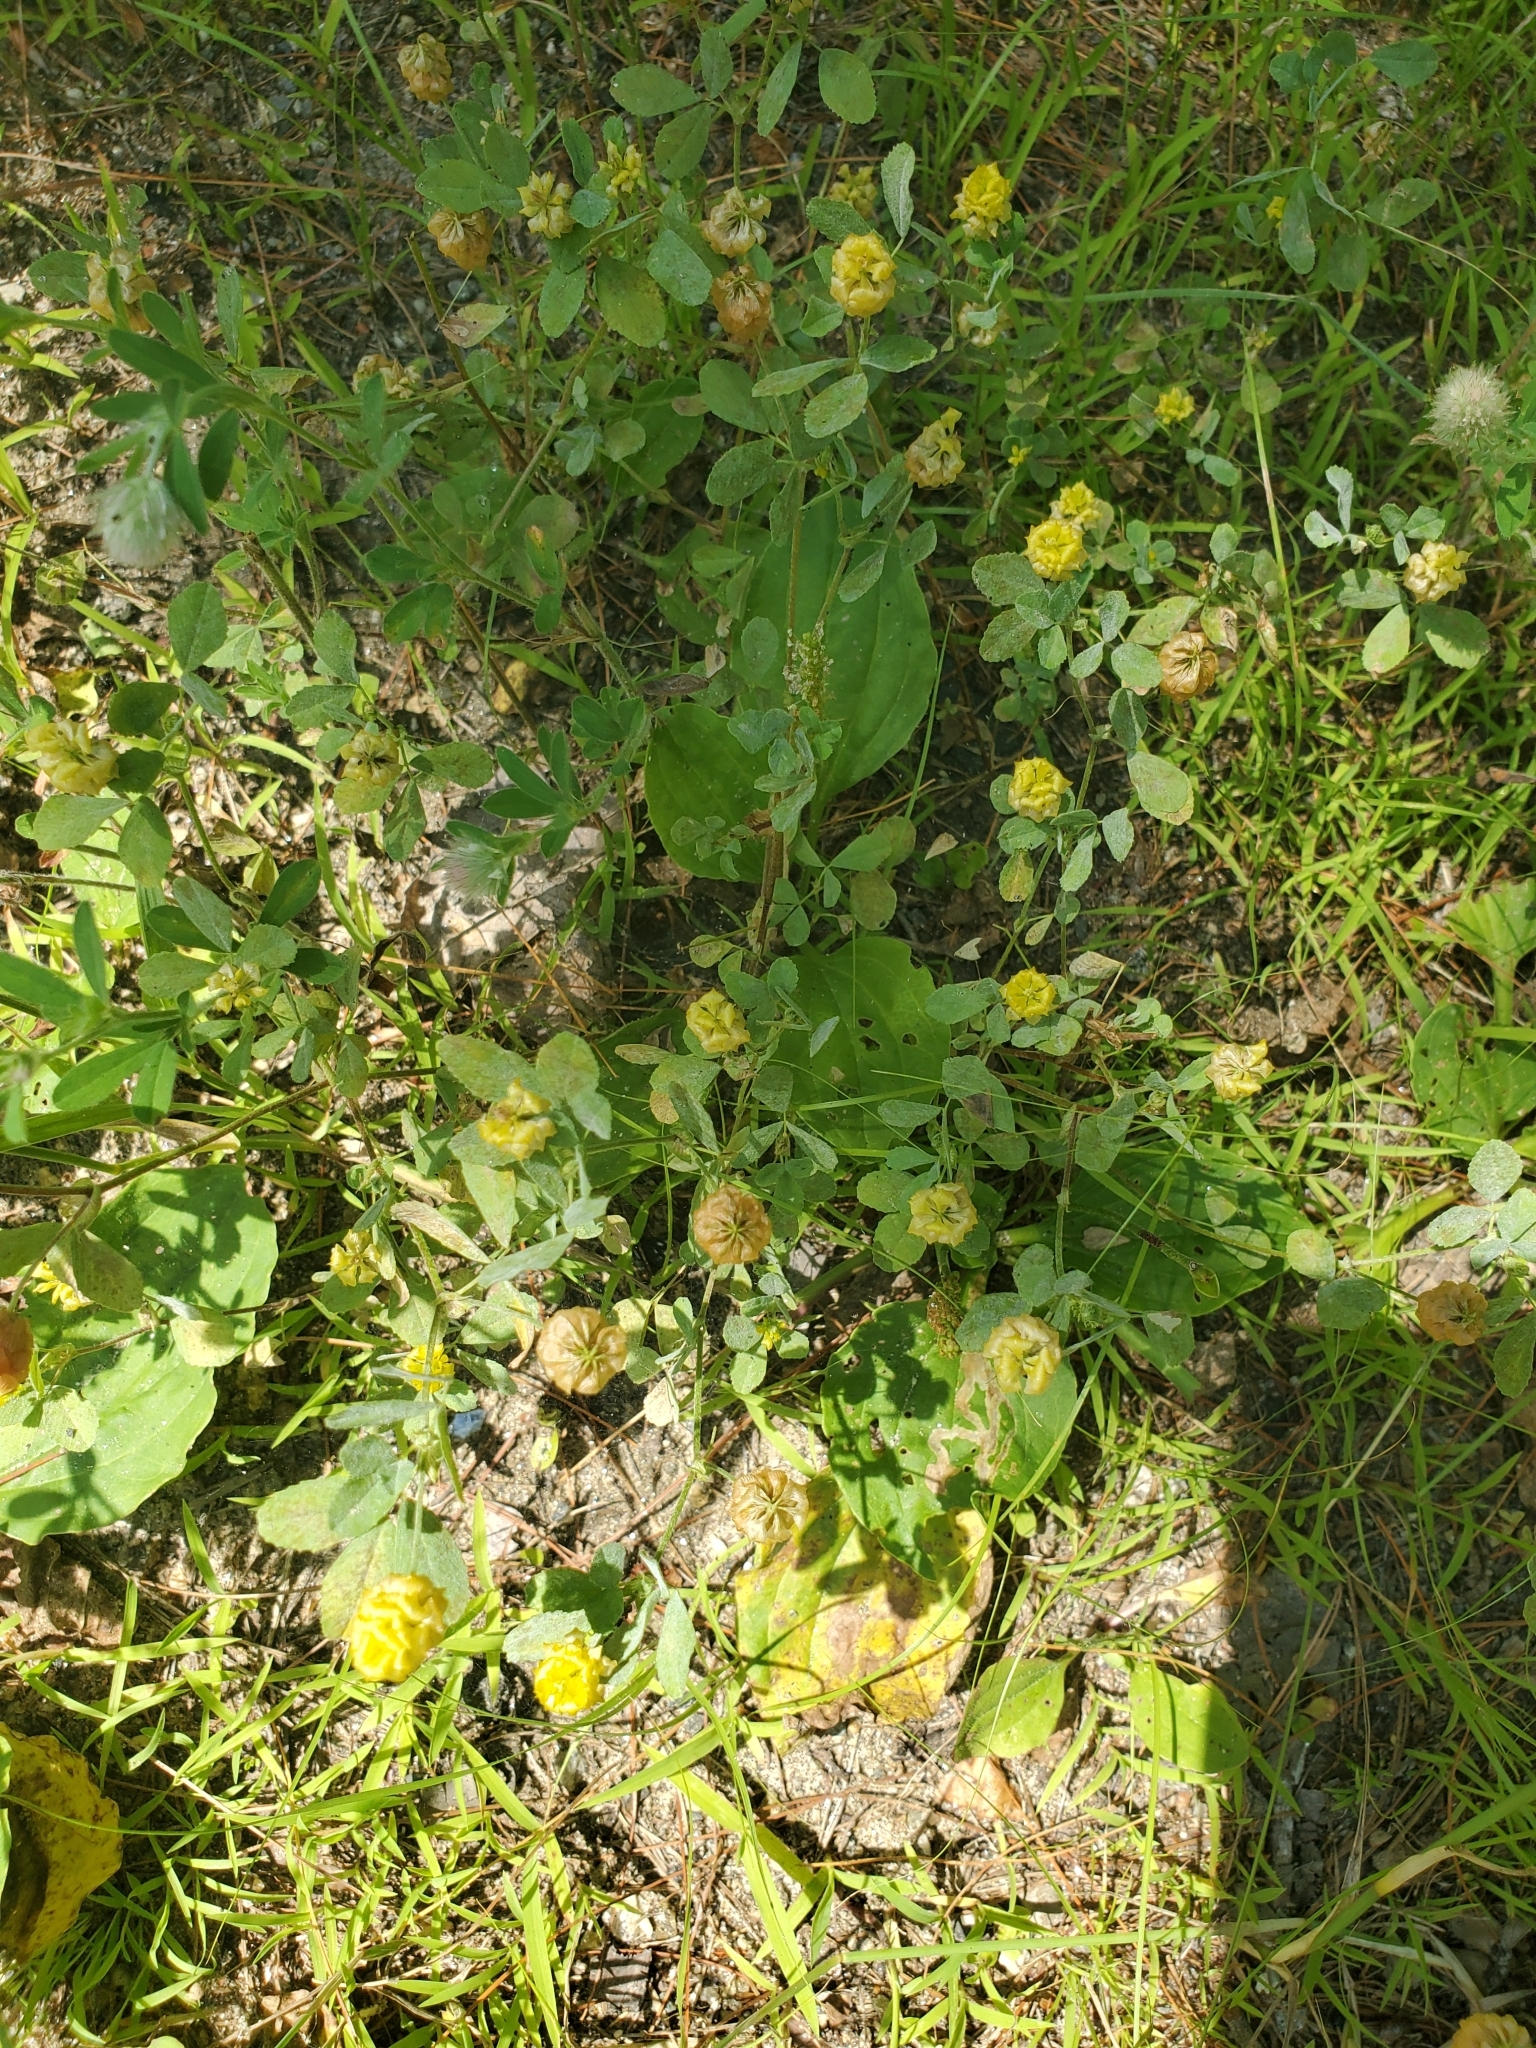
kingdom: Plantae
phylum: Tracheophyta
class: Magnoliopsida
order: Fabales
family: Fabaceae
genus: Trifolium
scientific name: Trifolium campestre
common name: Field clover
